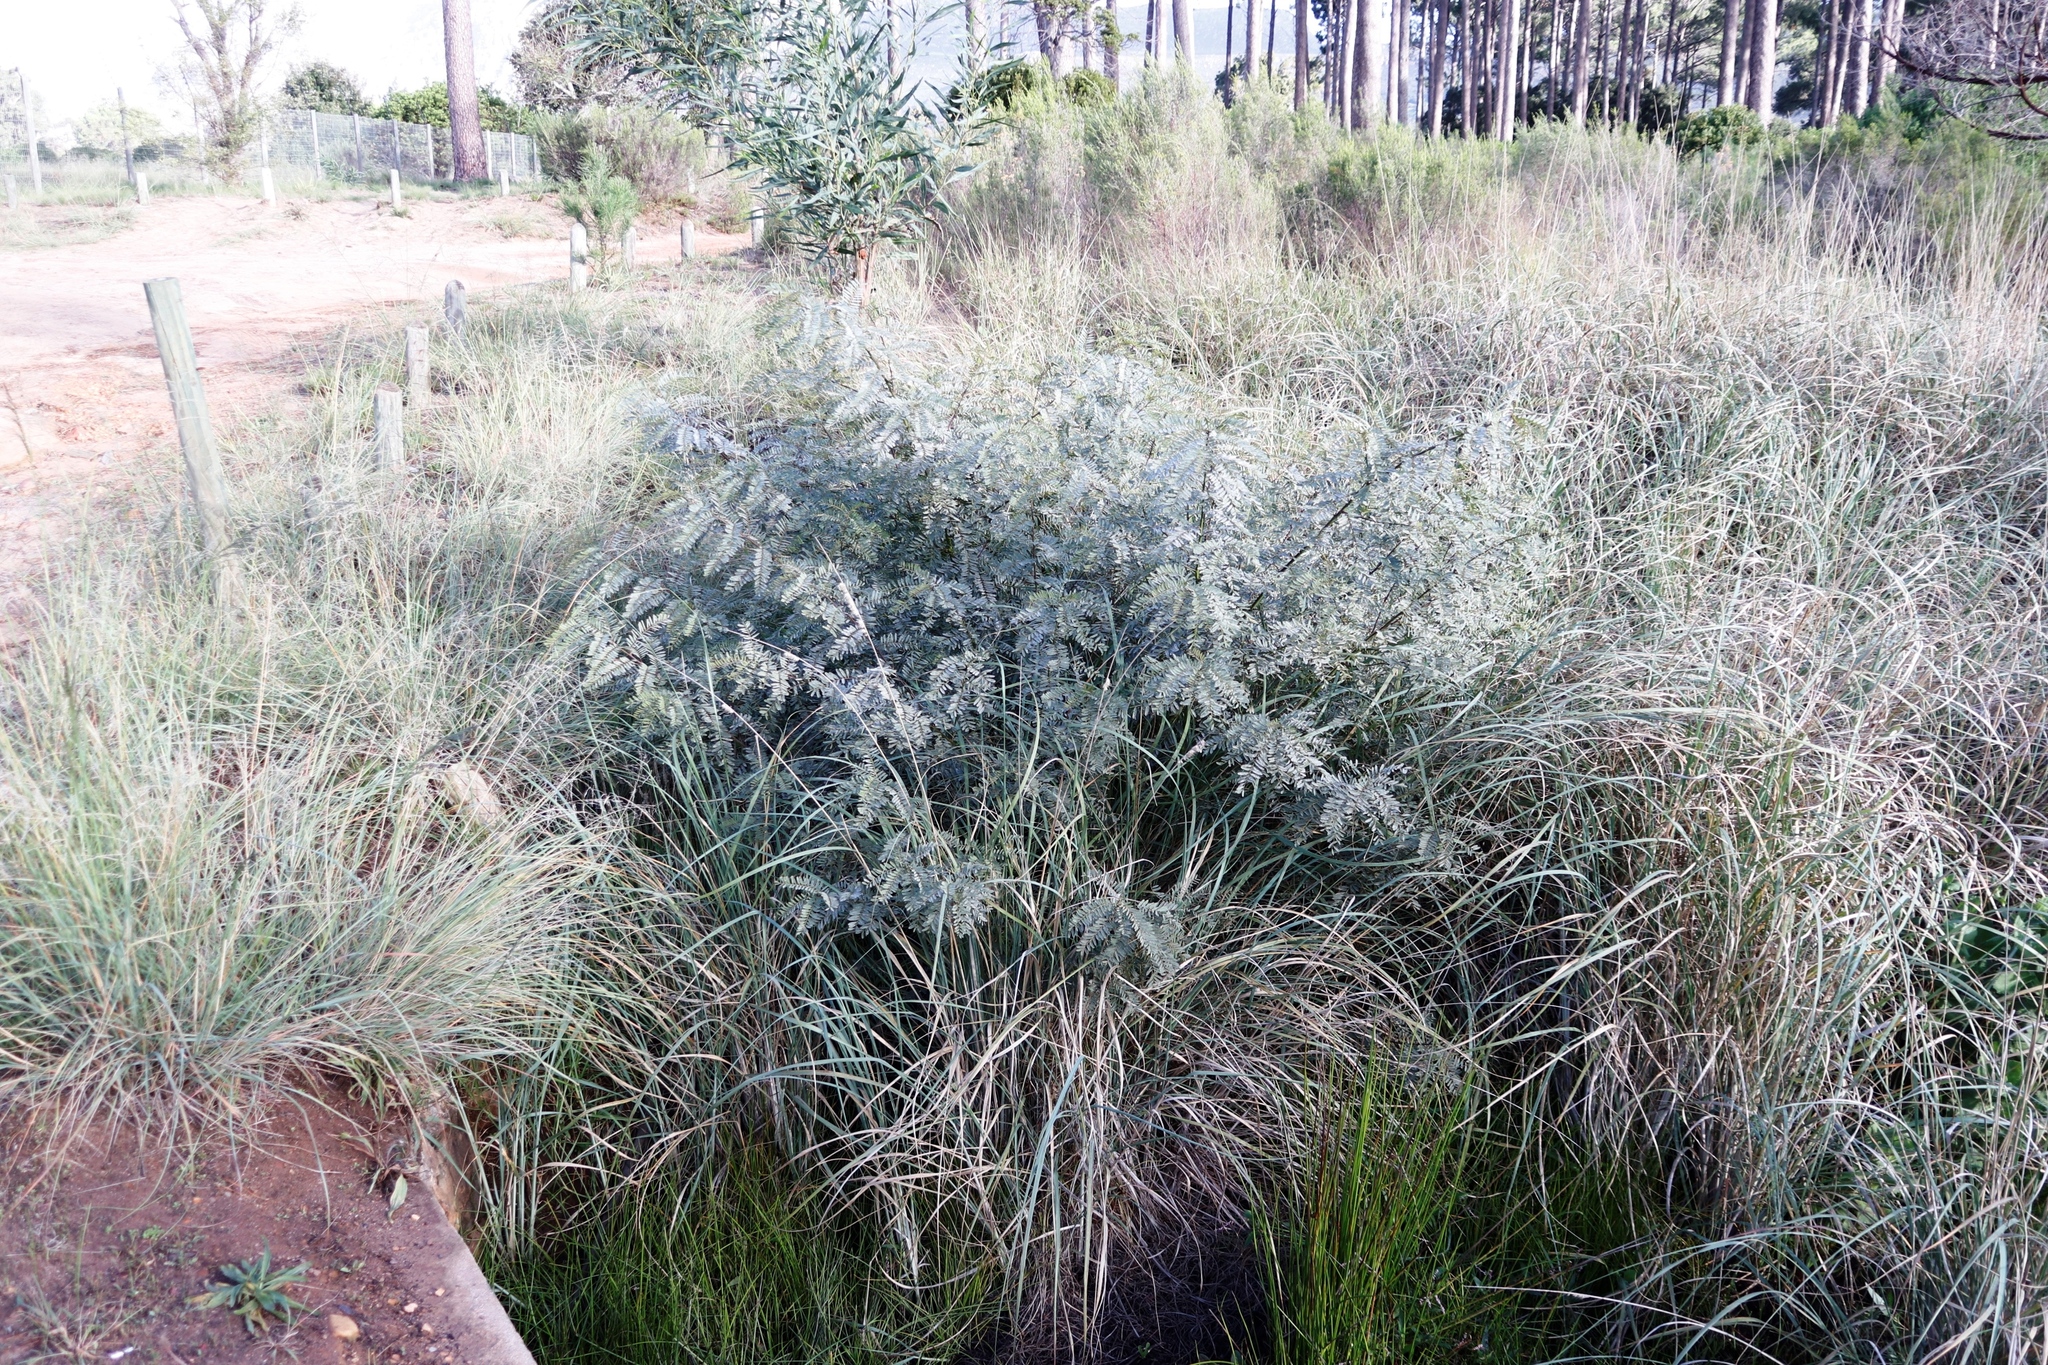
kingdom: Plantae
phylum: Tracheophyta
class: Magnoliopsida
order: Fabales
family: Fabaceae
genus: Sesbania
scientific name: Sesbania punicea
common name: Rattlebox
